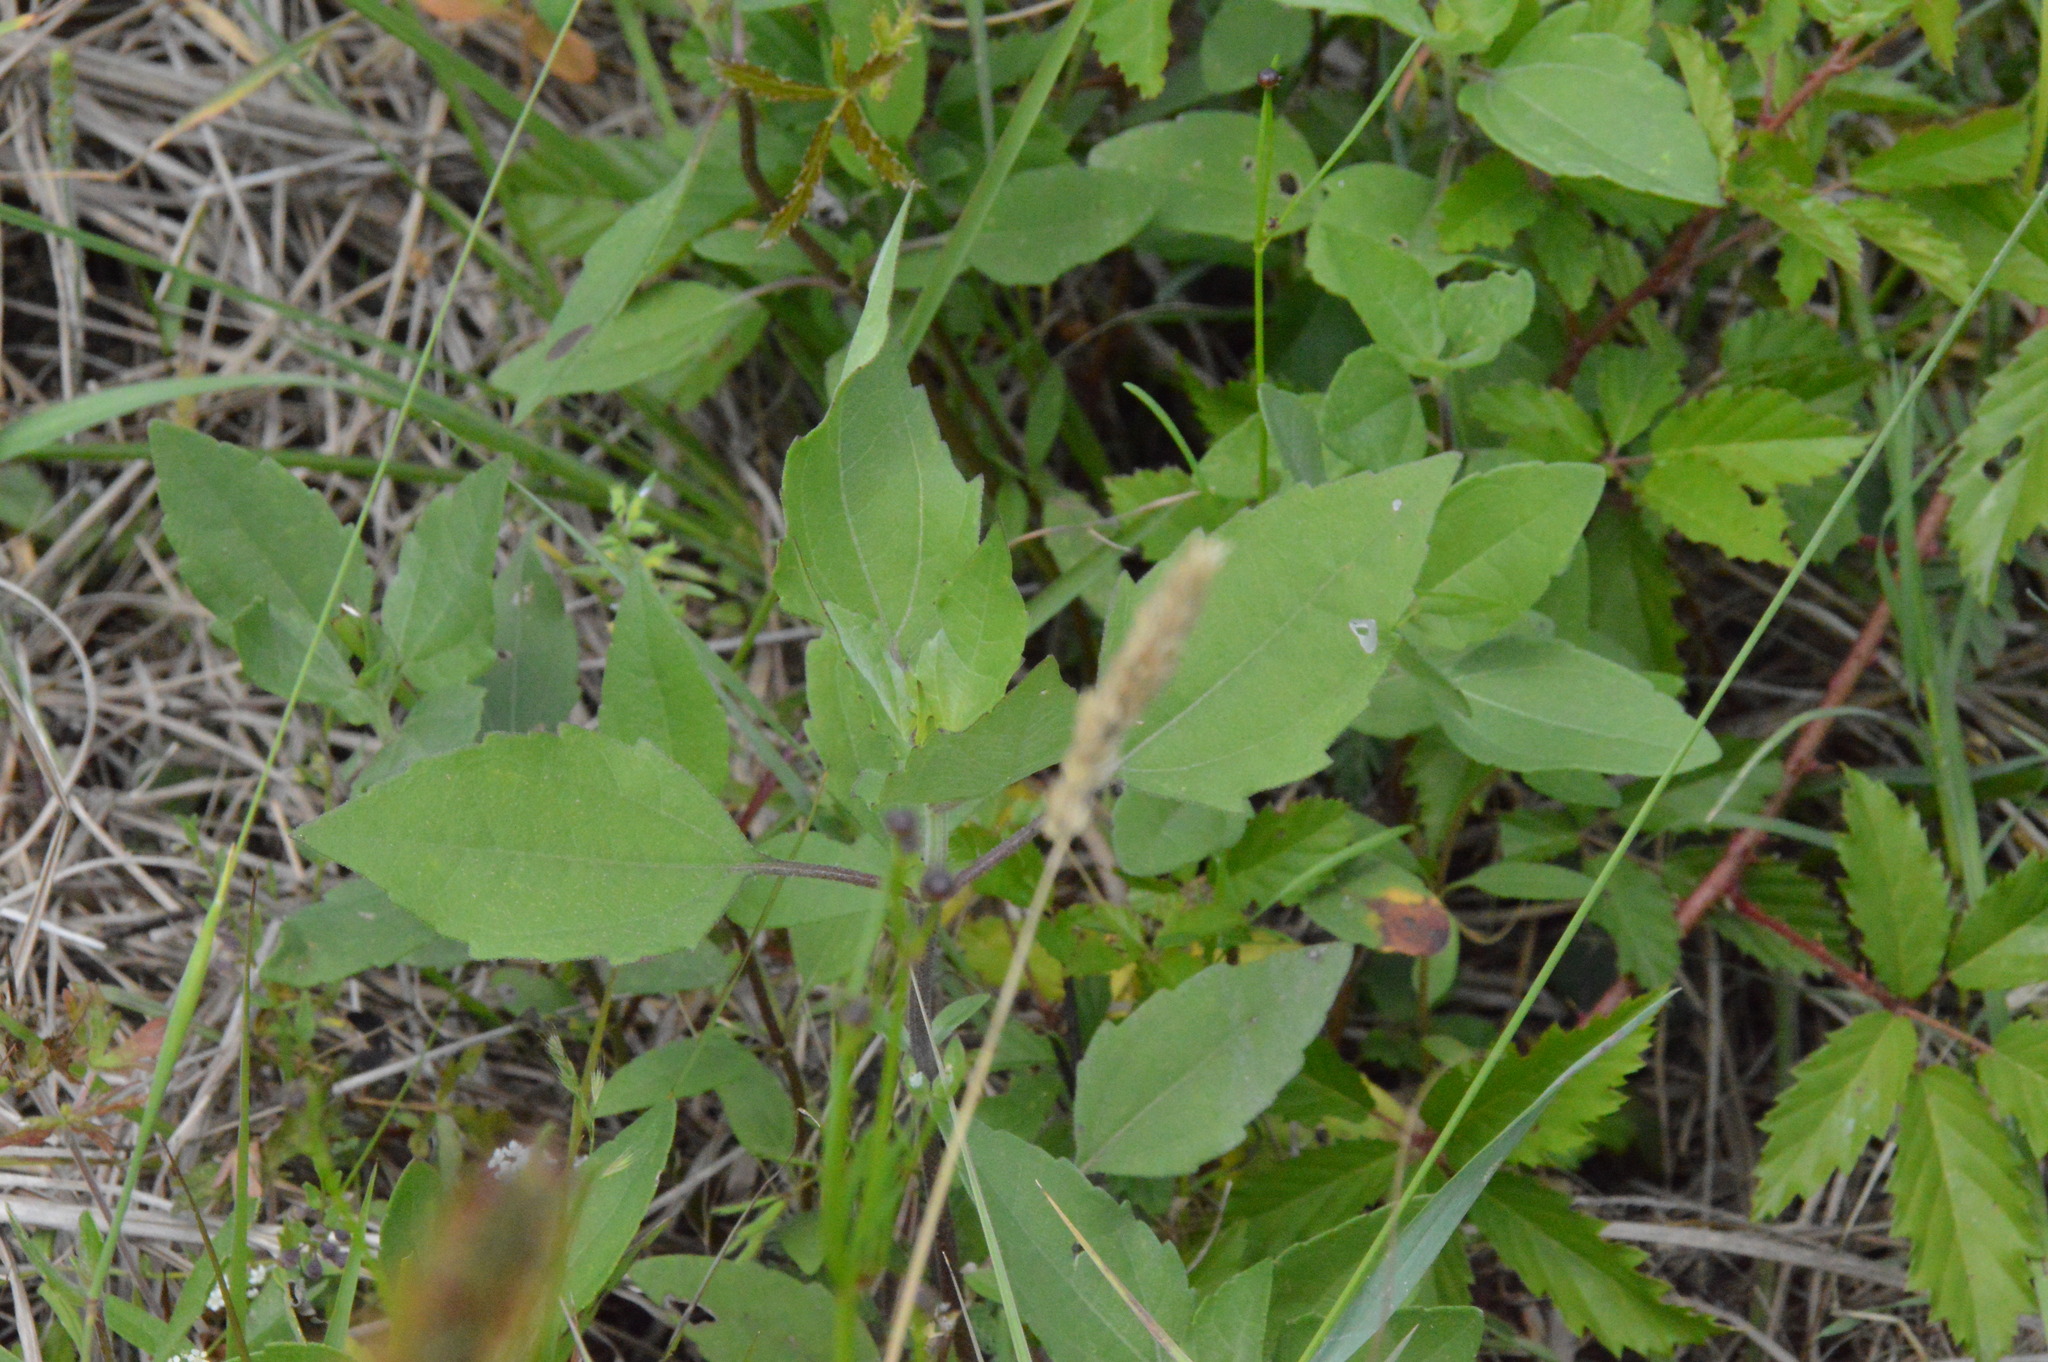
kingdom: Plantae
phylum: Tracheophyta
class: Magnoliopsida
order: Asterales
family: Asteraceae
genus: Iva
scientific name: Iva annua
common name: Marsh-elder
